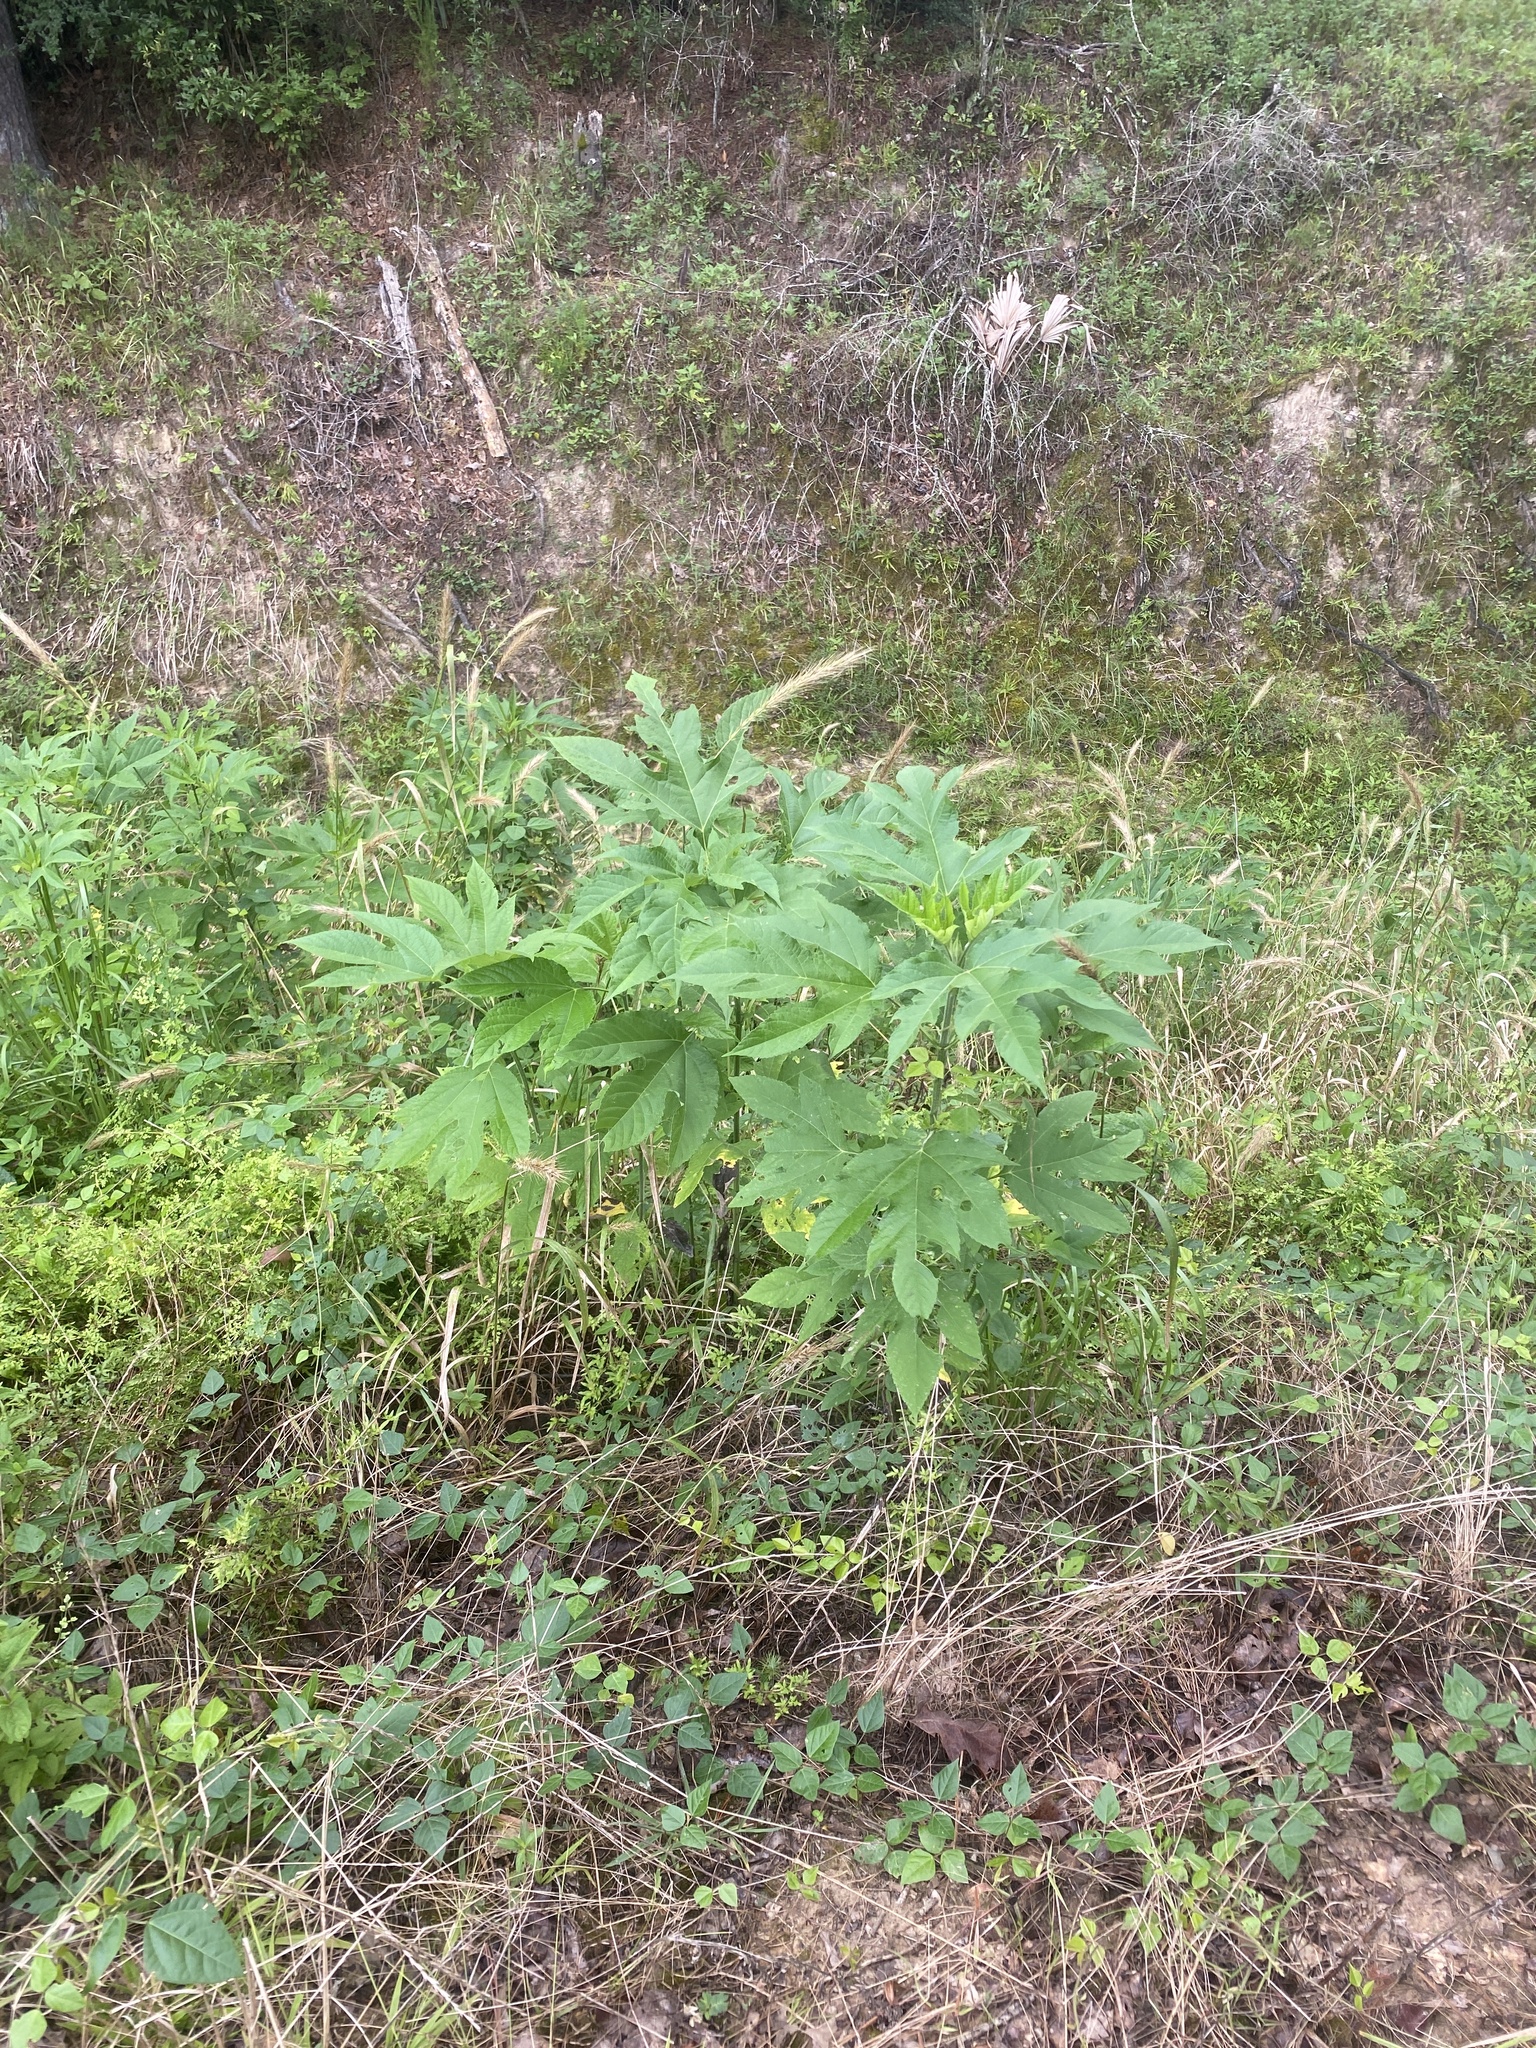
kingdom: Plantae
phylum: Tracheophyta
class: Magnoliopsida
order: Asterales
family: Asteraceae
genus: Ambrosia
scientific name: Ambrosia trifida
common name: Giant ragweed
